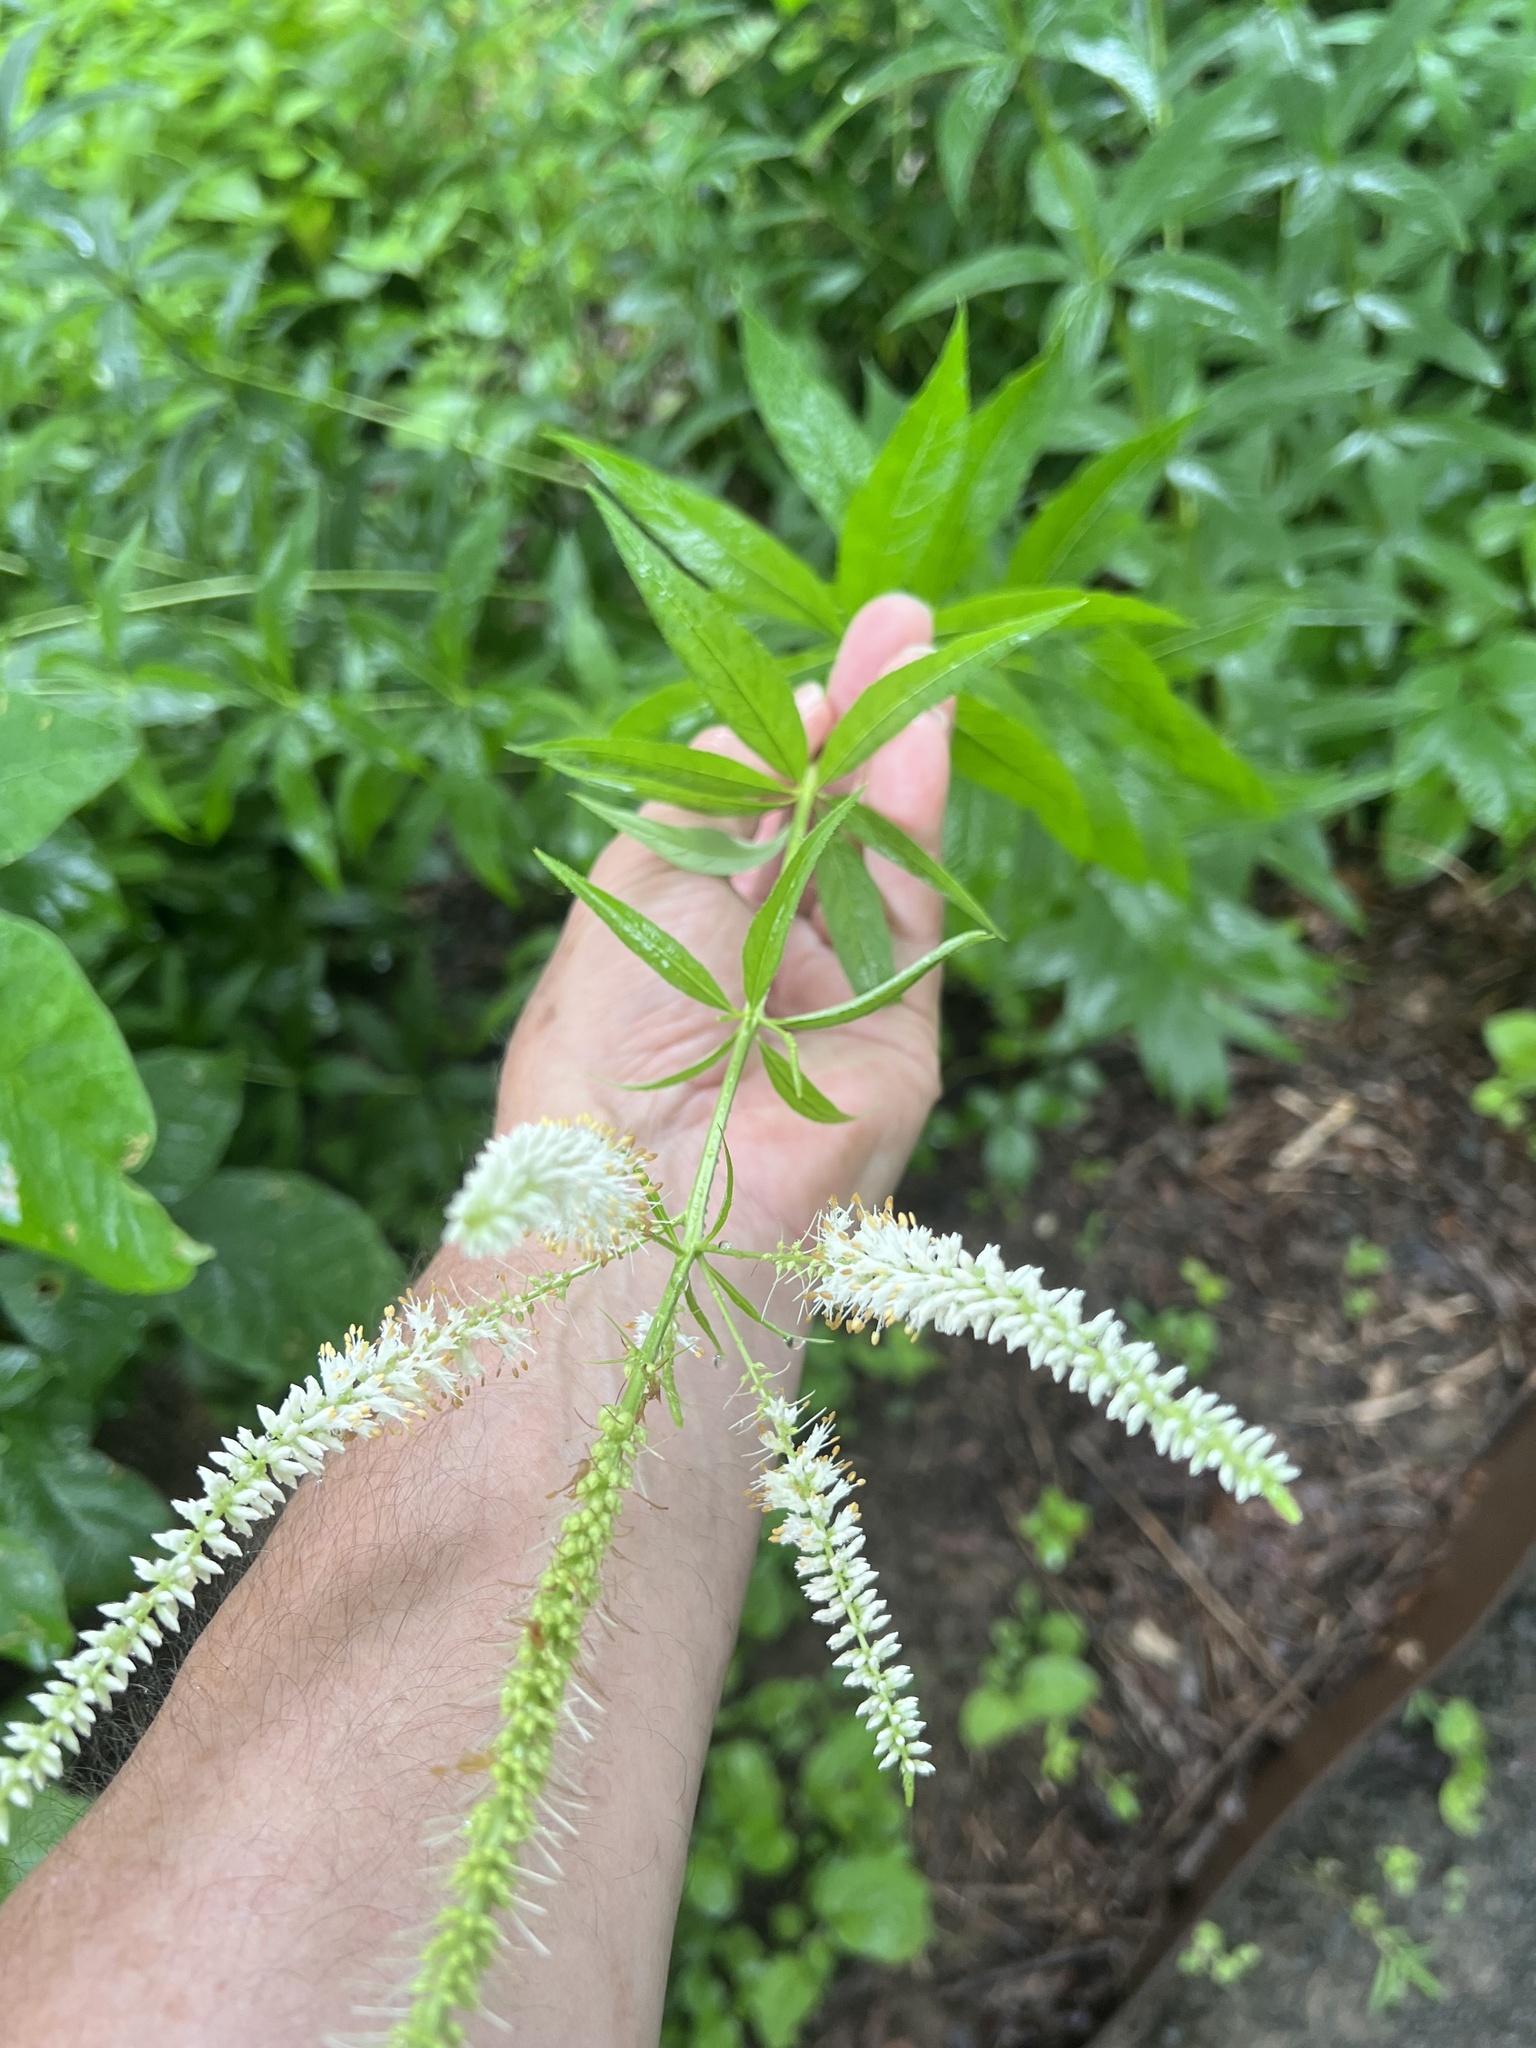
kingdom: Plantae
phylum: Tracheophyta
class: Magnoliopsida
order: Lamiales
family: Plantaginaceae
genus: Veronicastrum
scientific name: Veronicastrum virginicum
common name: Blackroot
